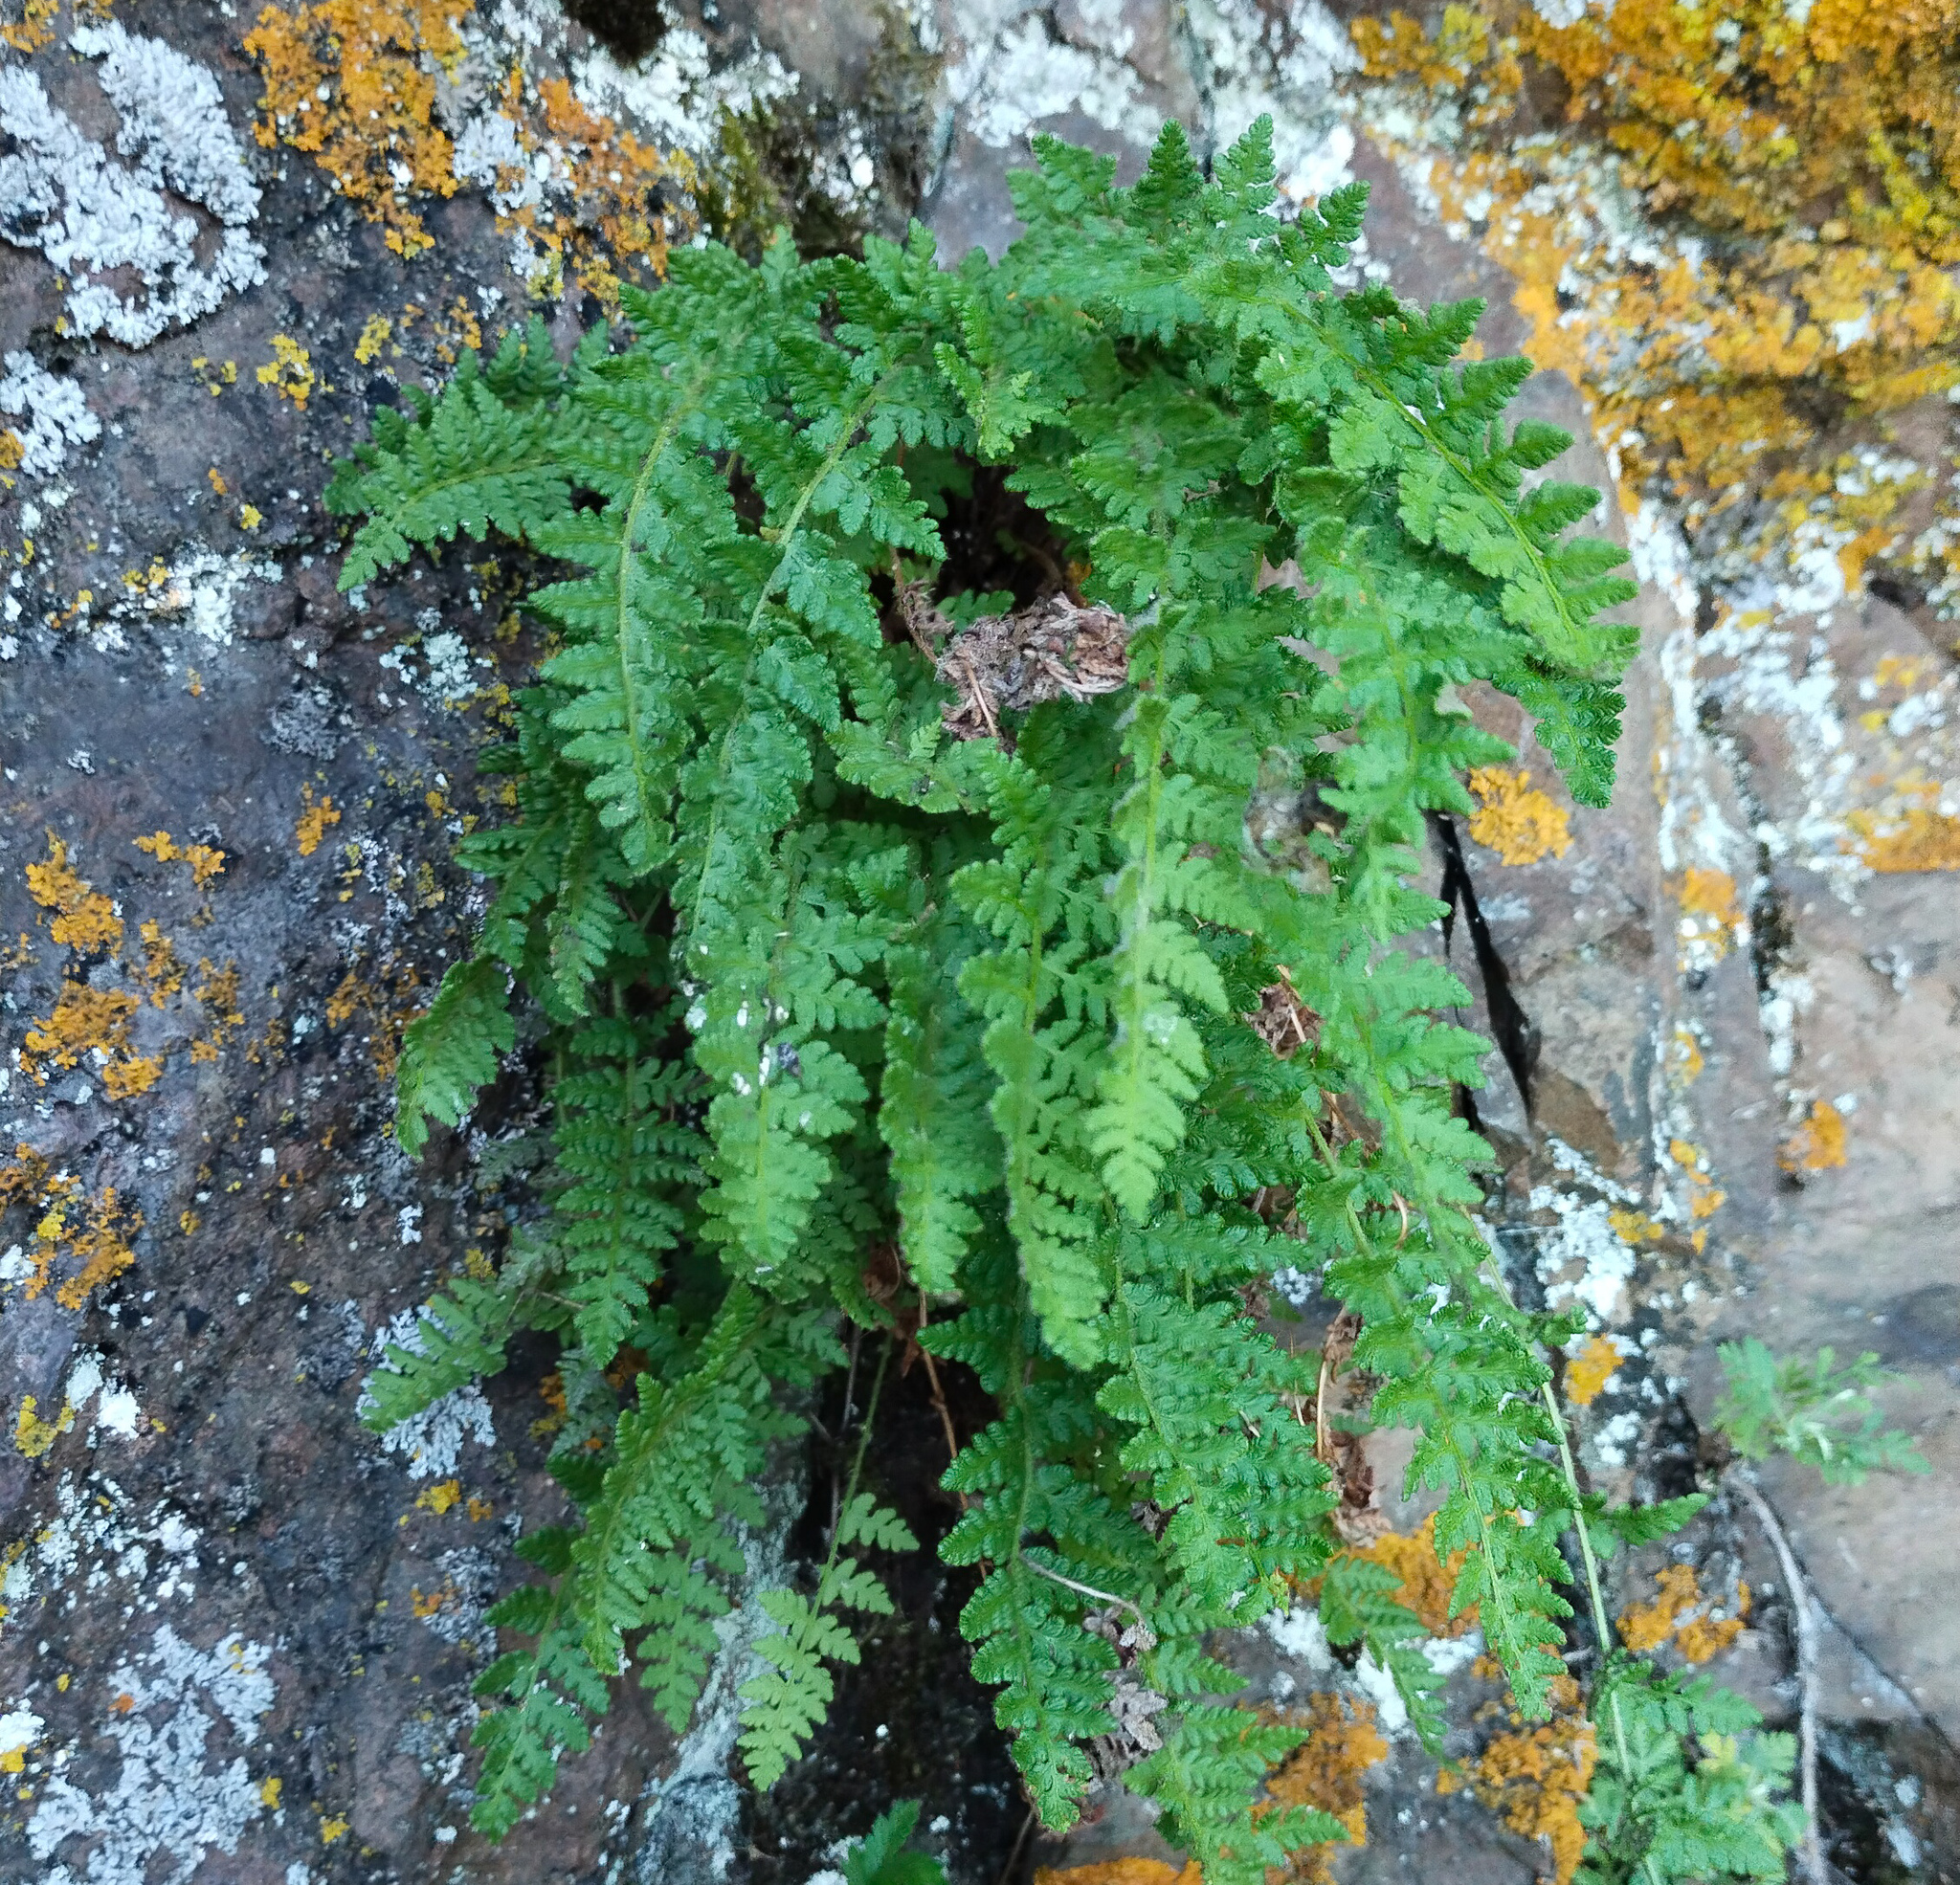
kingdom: Plantae
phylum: Tracheophyta
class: Polypodiopsida
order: Polypodiales
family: Woodsiaceae
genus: Woodsia
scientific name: Woodsia ilvensis
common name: Fragrant woodsia
